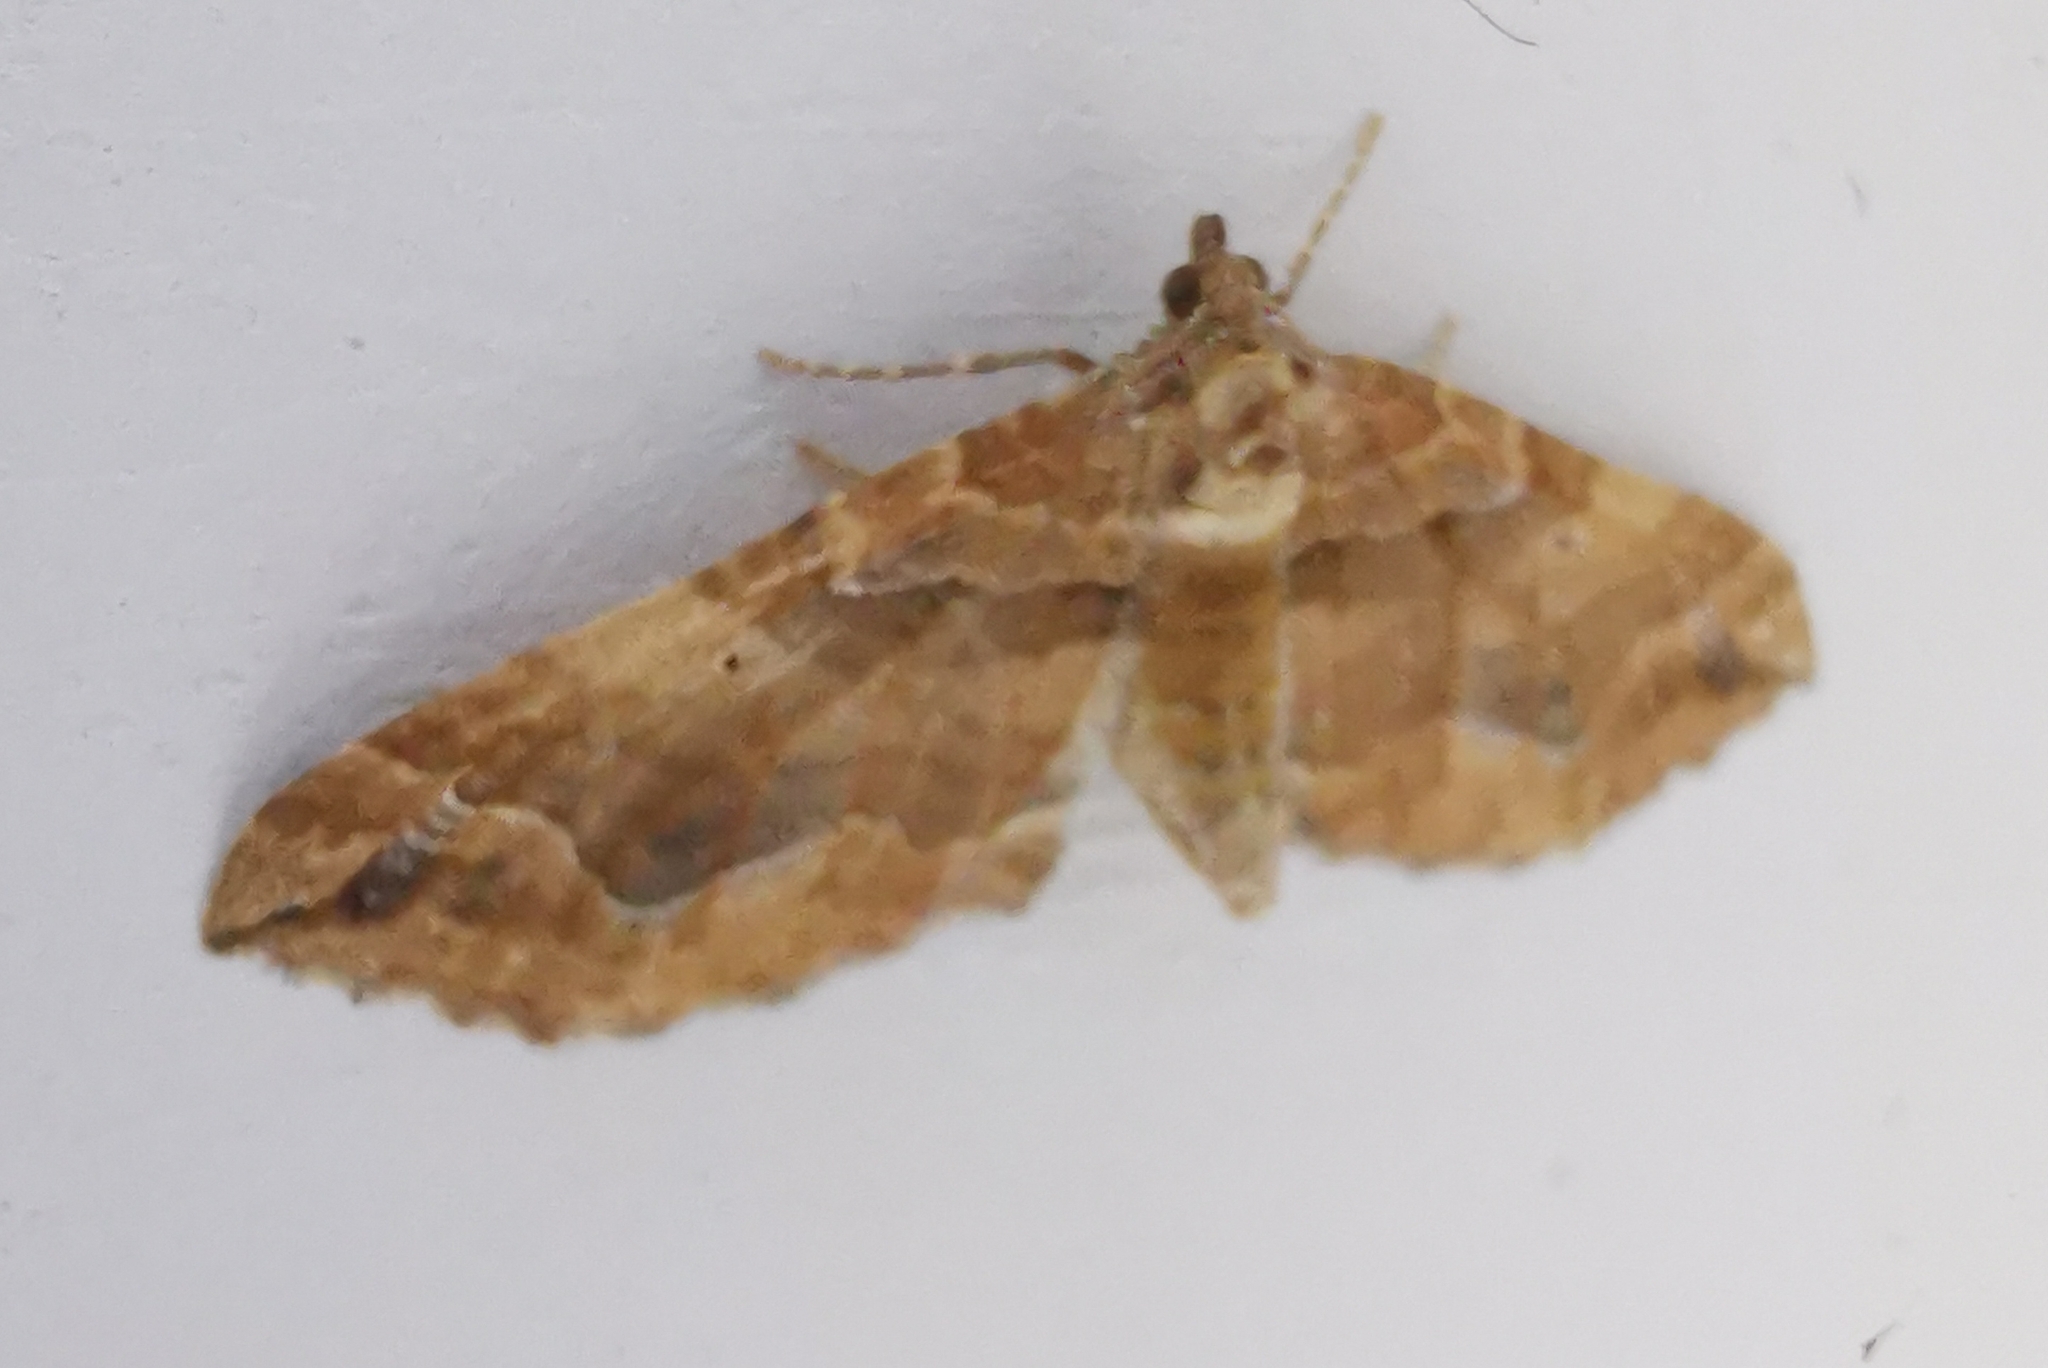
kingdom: Animalia
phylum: Arthropoda
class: Insecta
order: Lepidoptera
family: Geometridae
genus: Pelurga
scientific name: Pelurga comitata
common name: Dark spinach
